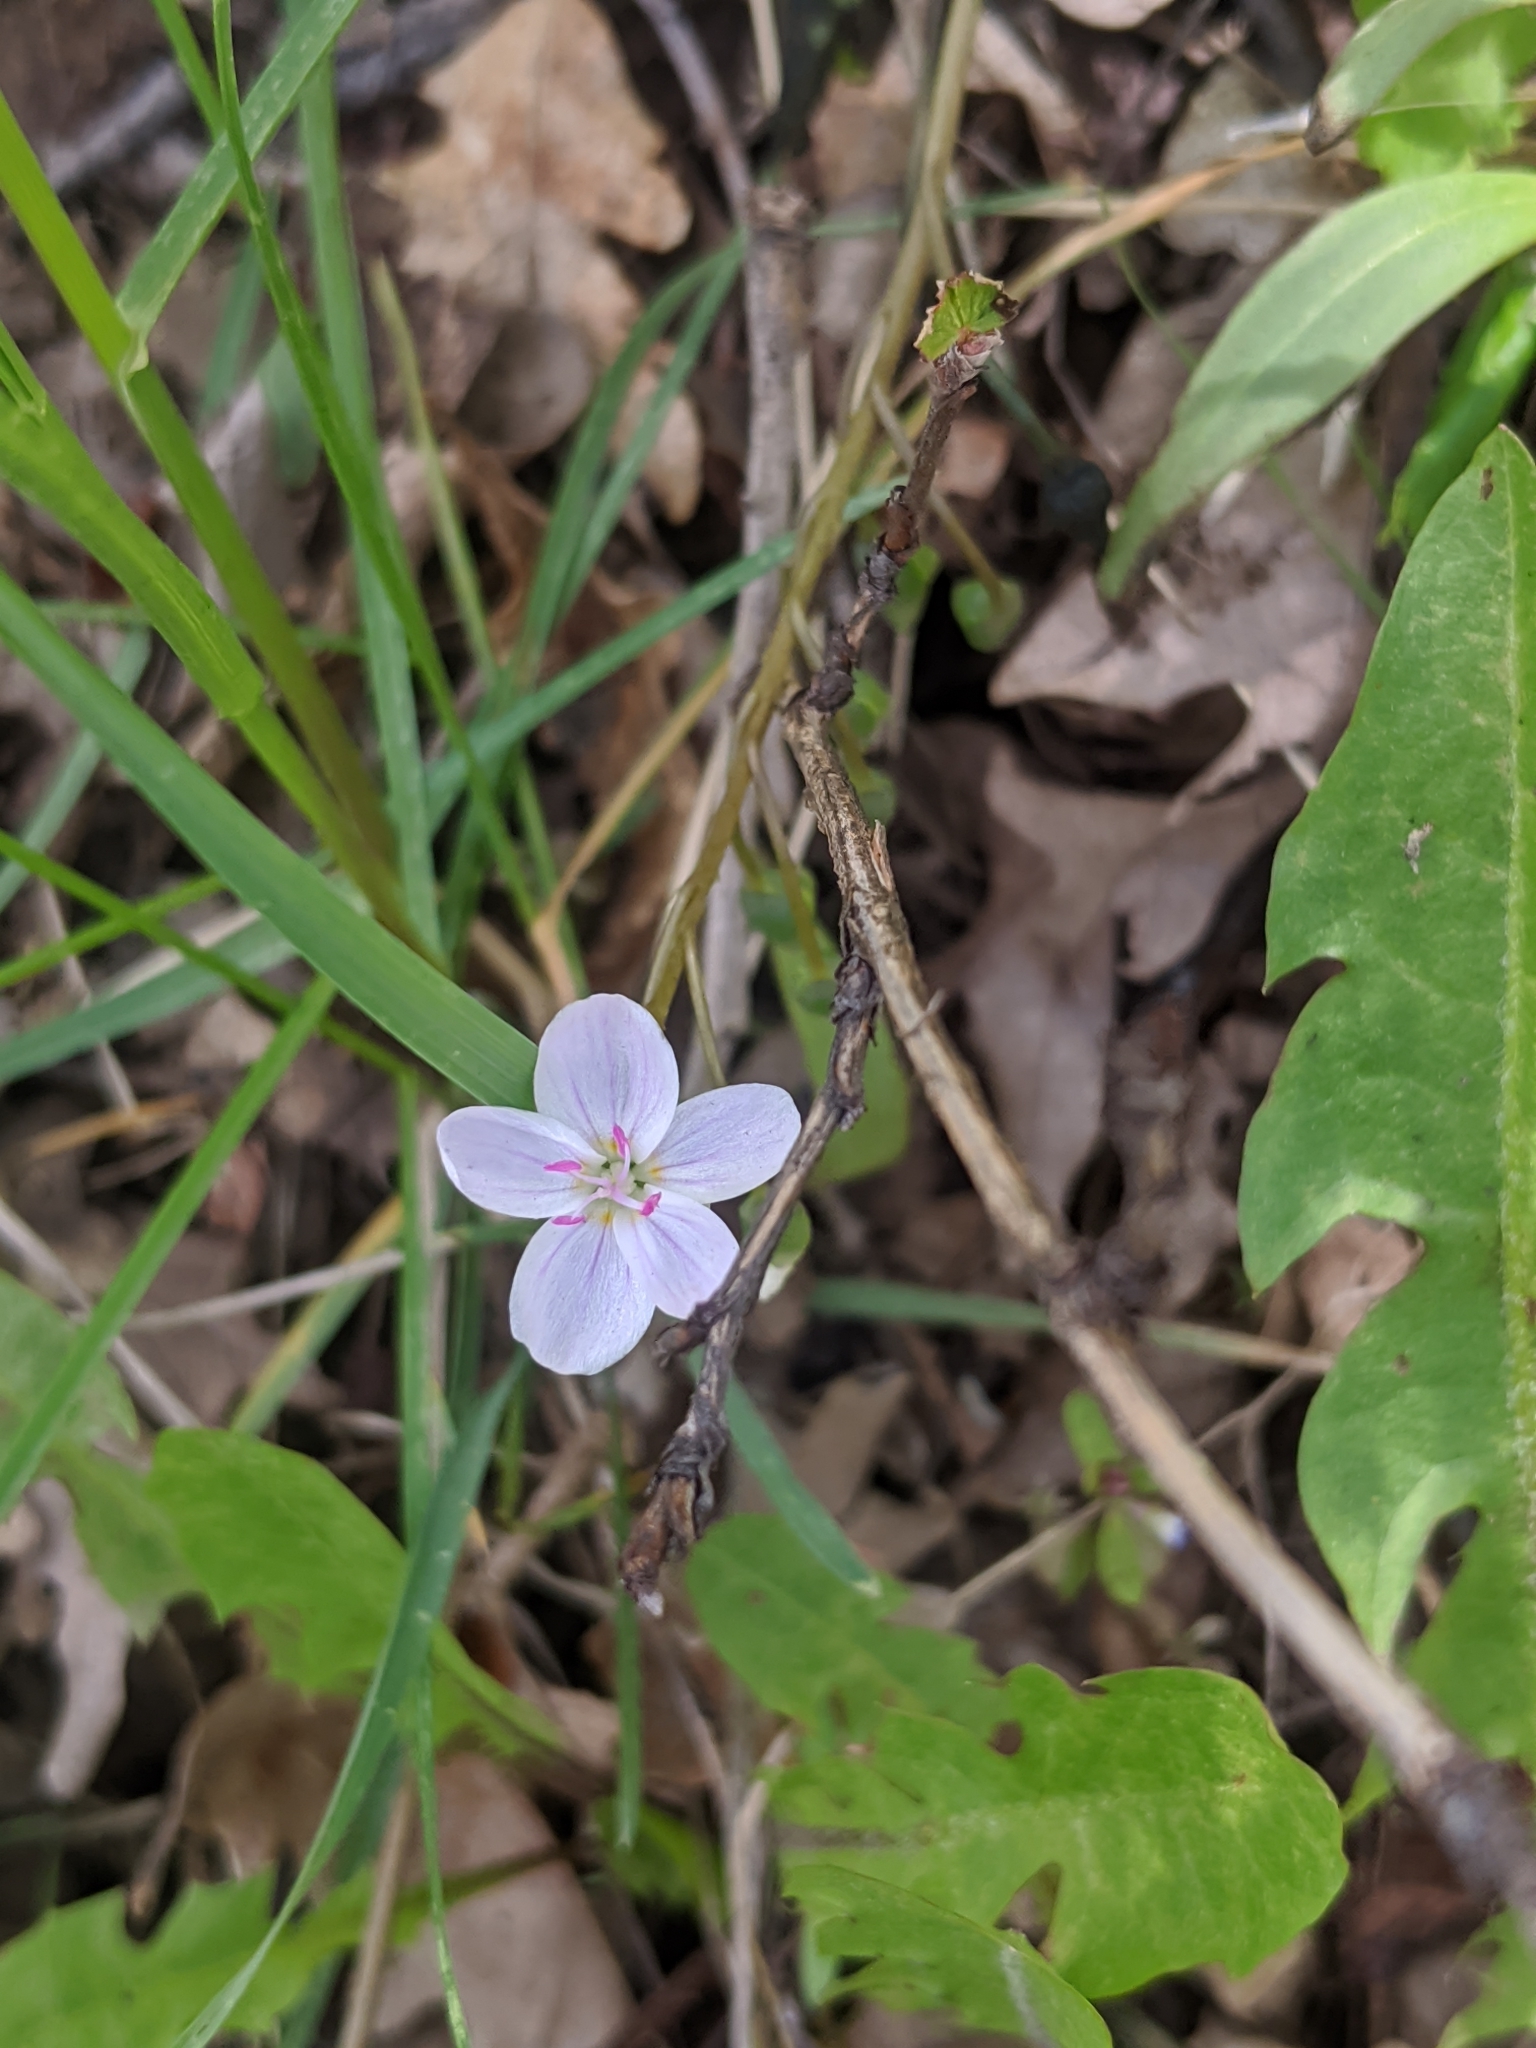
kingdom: Plantae
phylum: Tracheophyta
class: Magnoliopsida
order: Caryophyllales
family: Montiaceae
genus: Claytonia
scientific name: Claytonia rosea
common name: Rocky mountain spring-beauty
